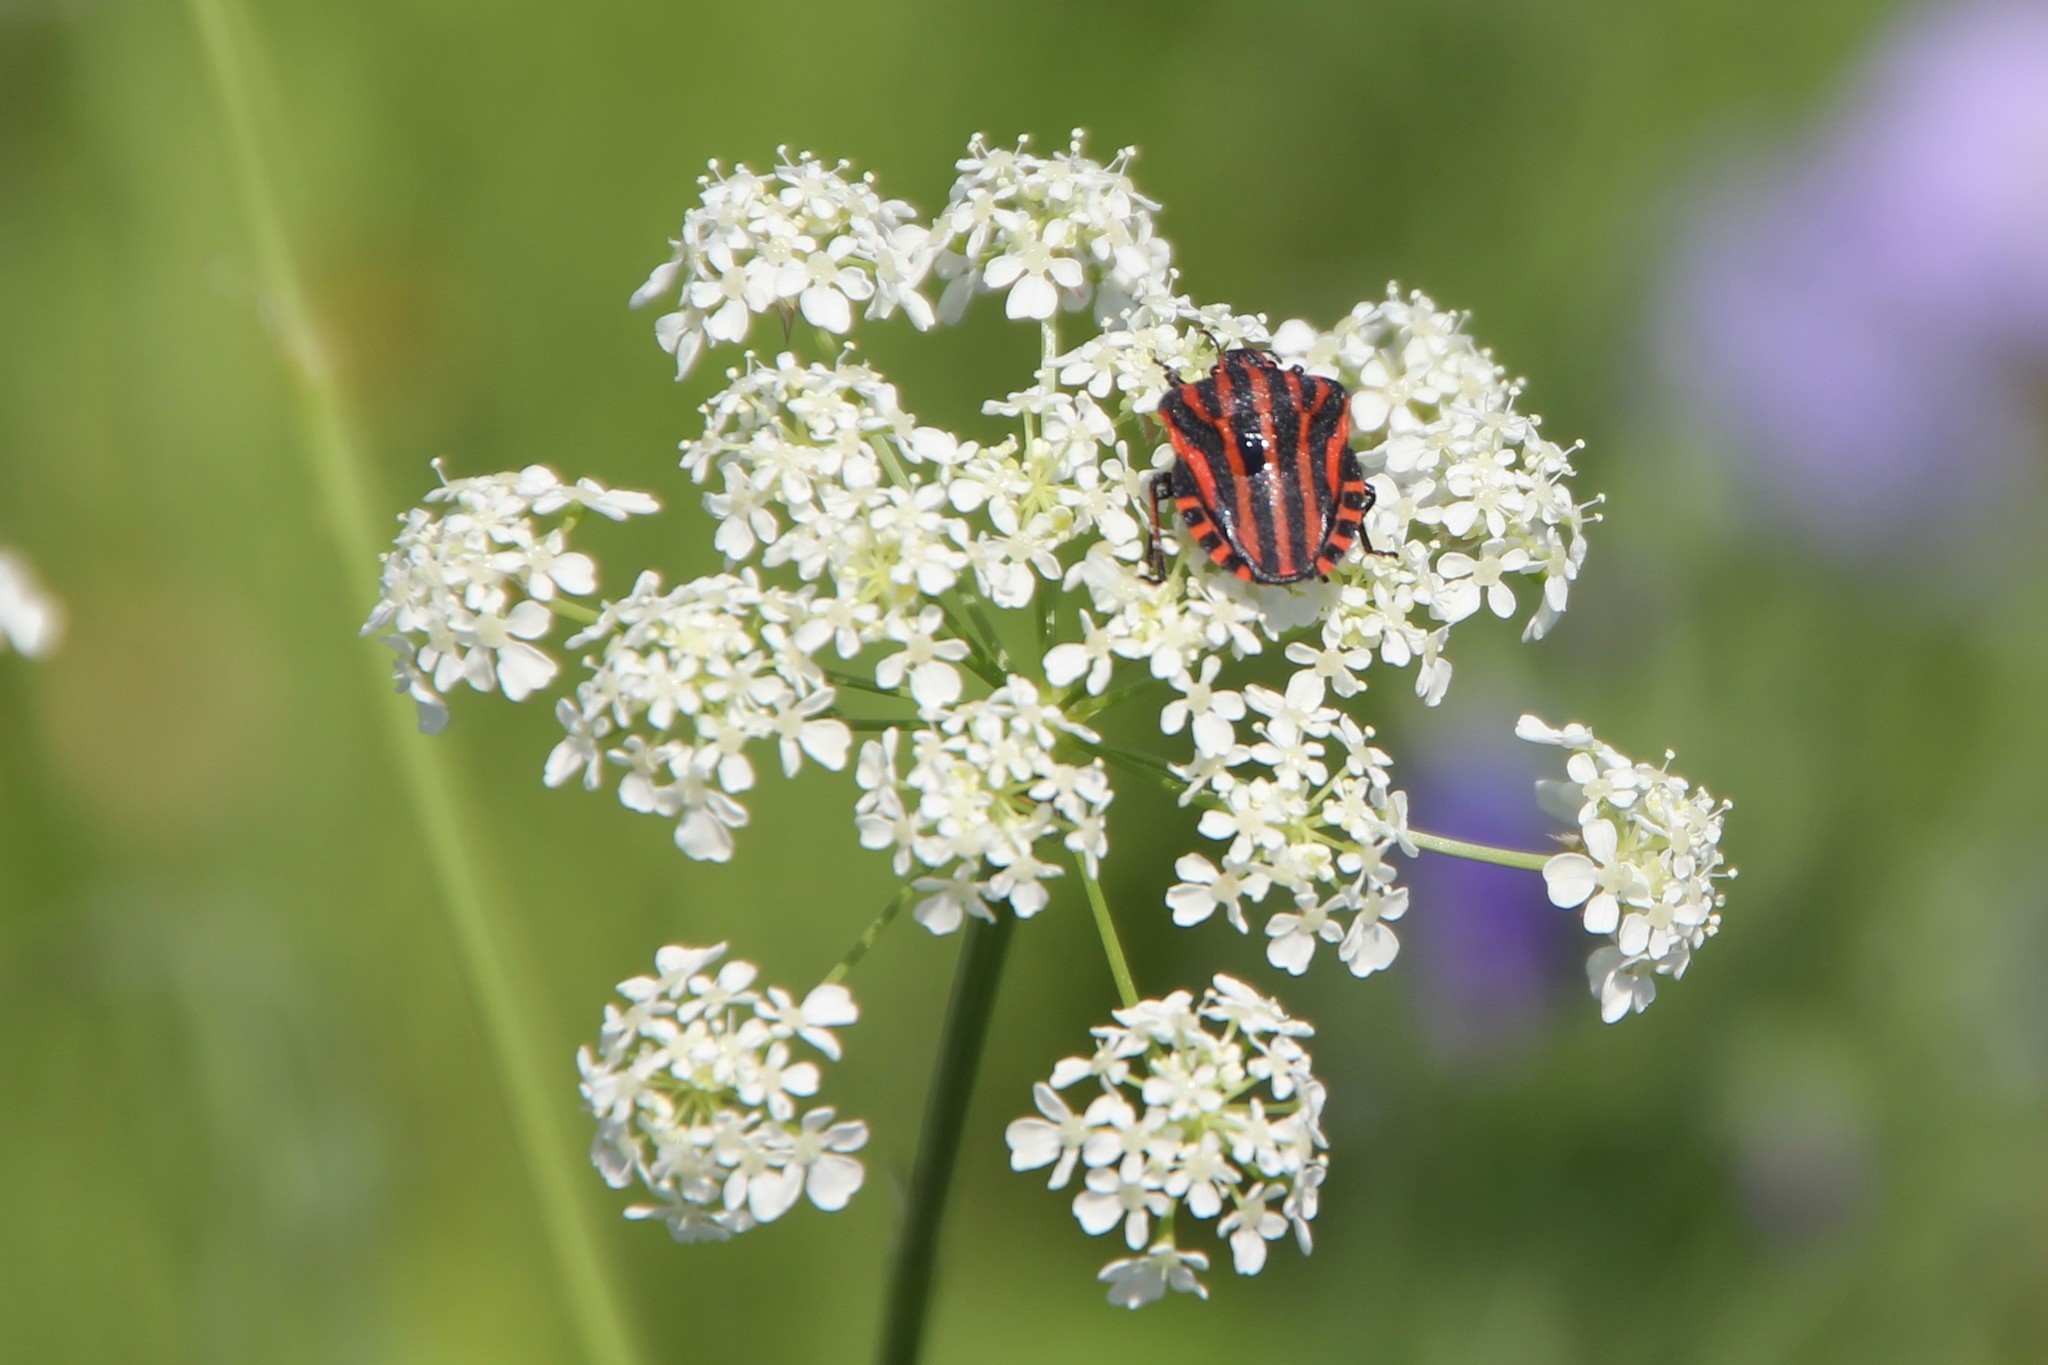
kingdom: Animalia
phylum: Arthropoda
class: Insecta
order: Hemiptera
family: Pentatomidae
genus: Graphosoma
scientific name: Graphosoma italicum
